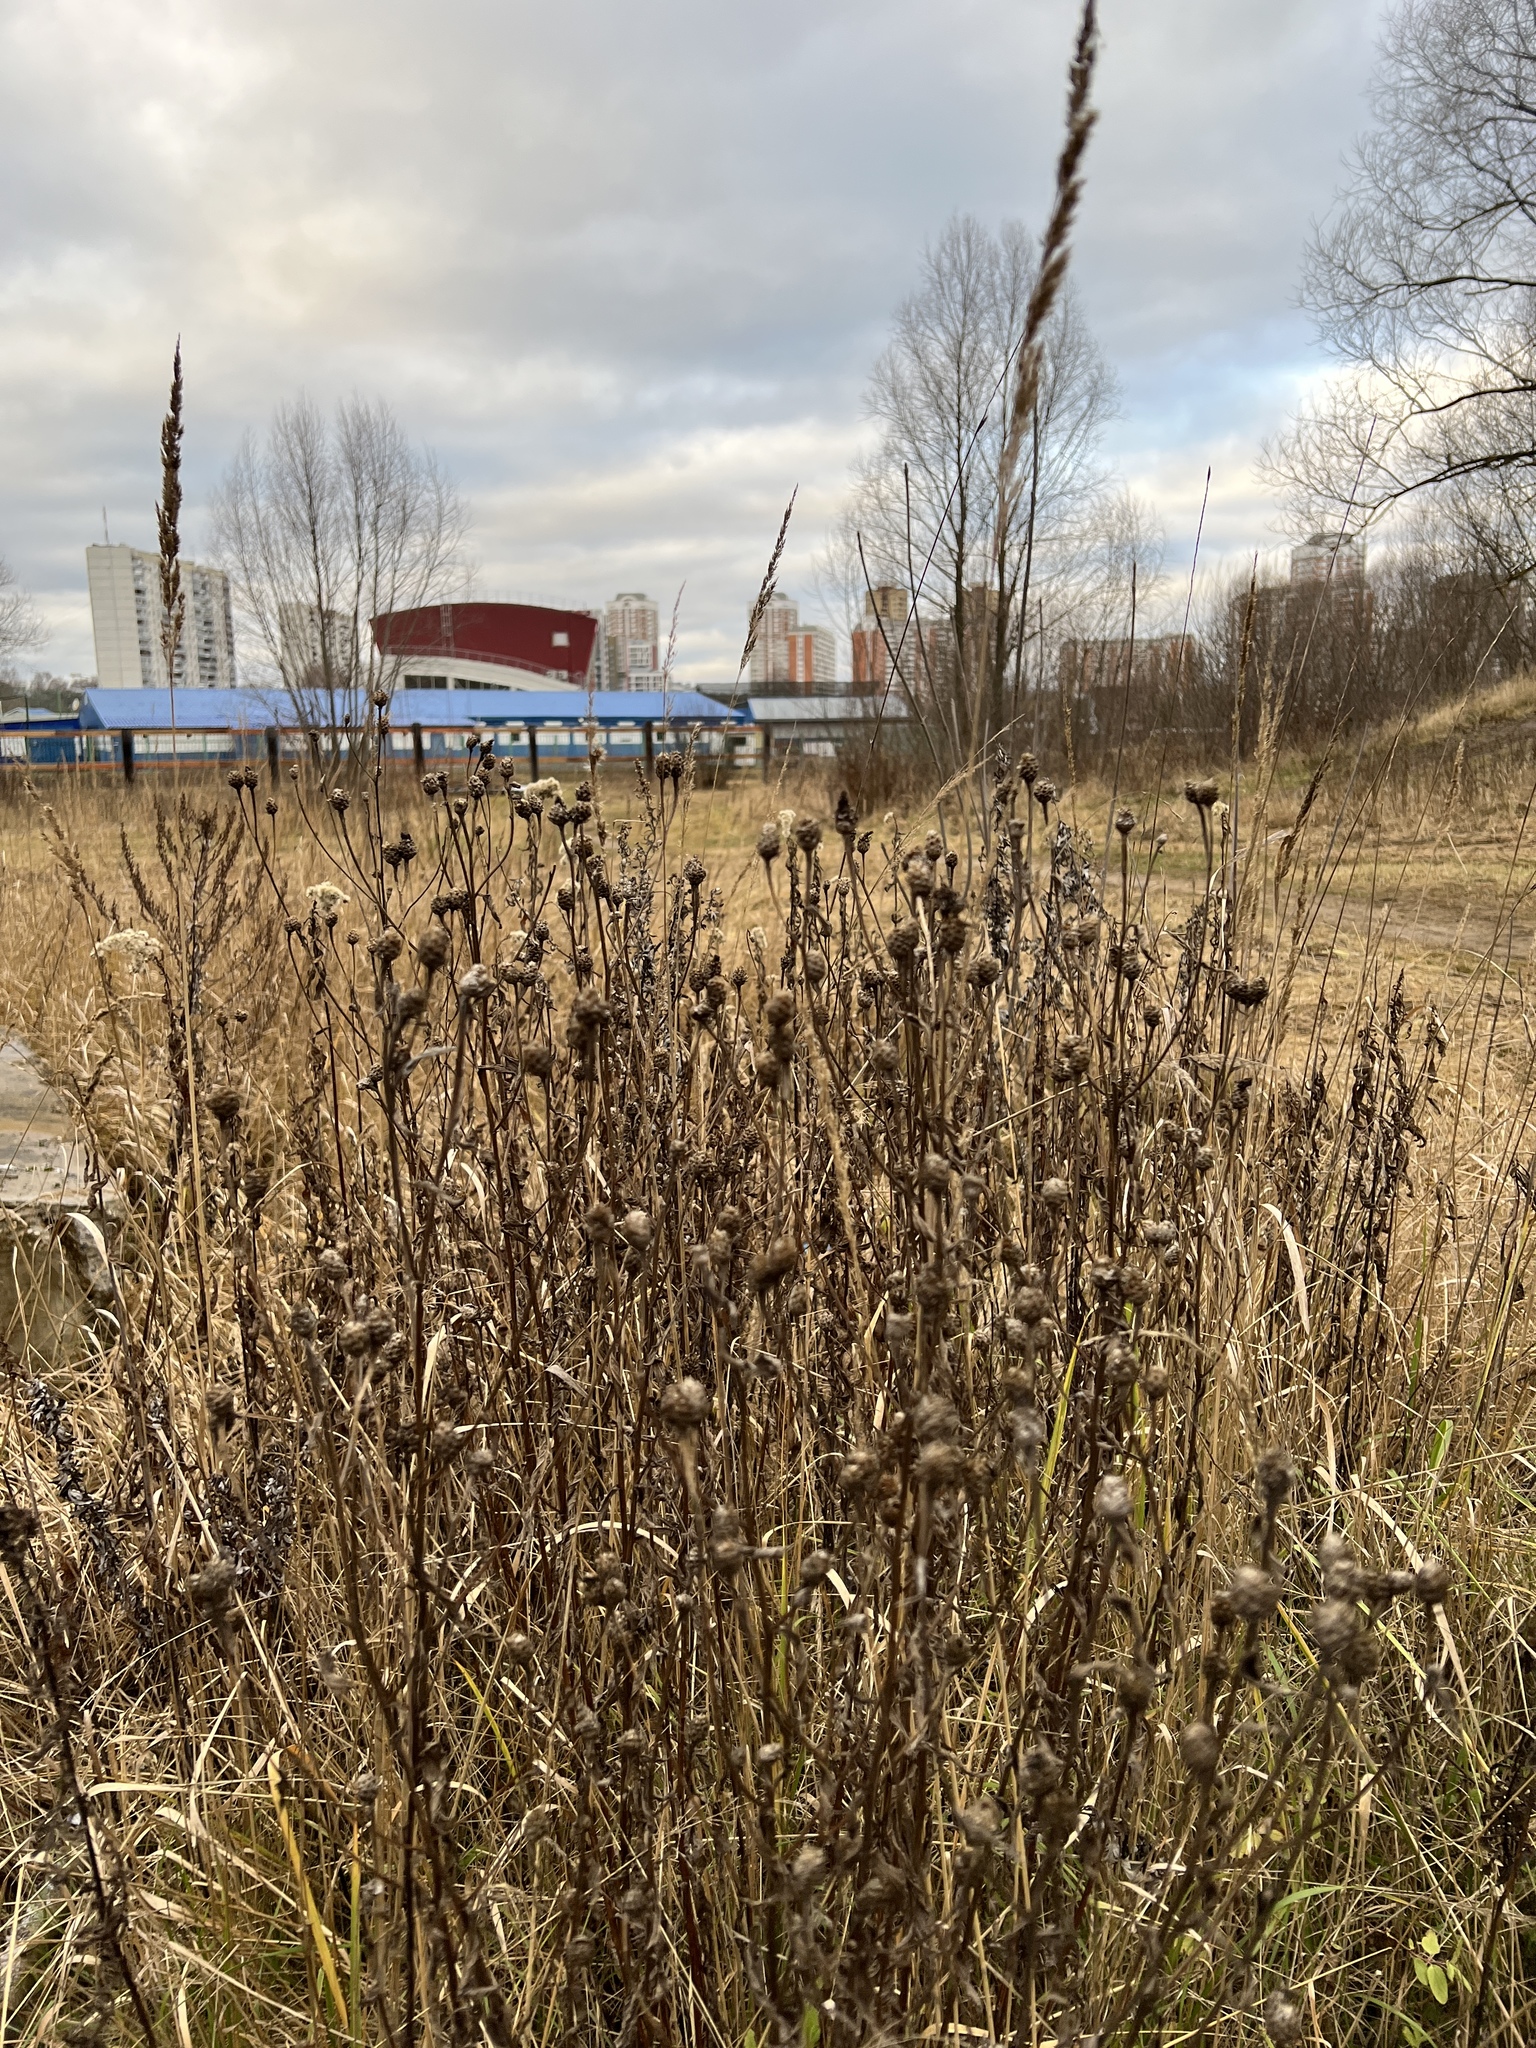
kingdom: Plantae
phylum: Tracheophyta
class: Magnoliopsida
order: Asterales
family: Asteraceae
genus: Centaurea
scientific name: Centaurea jacea
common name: Brown knapweed
